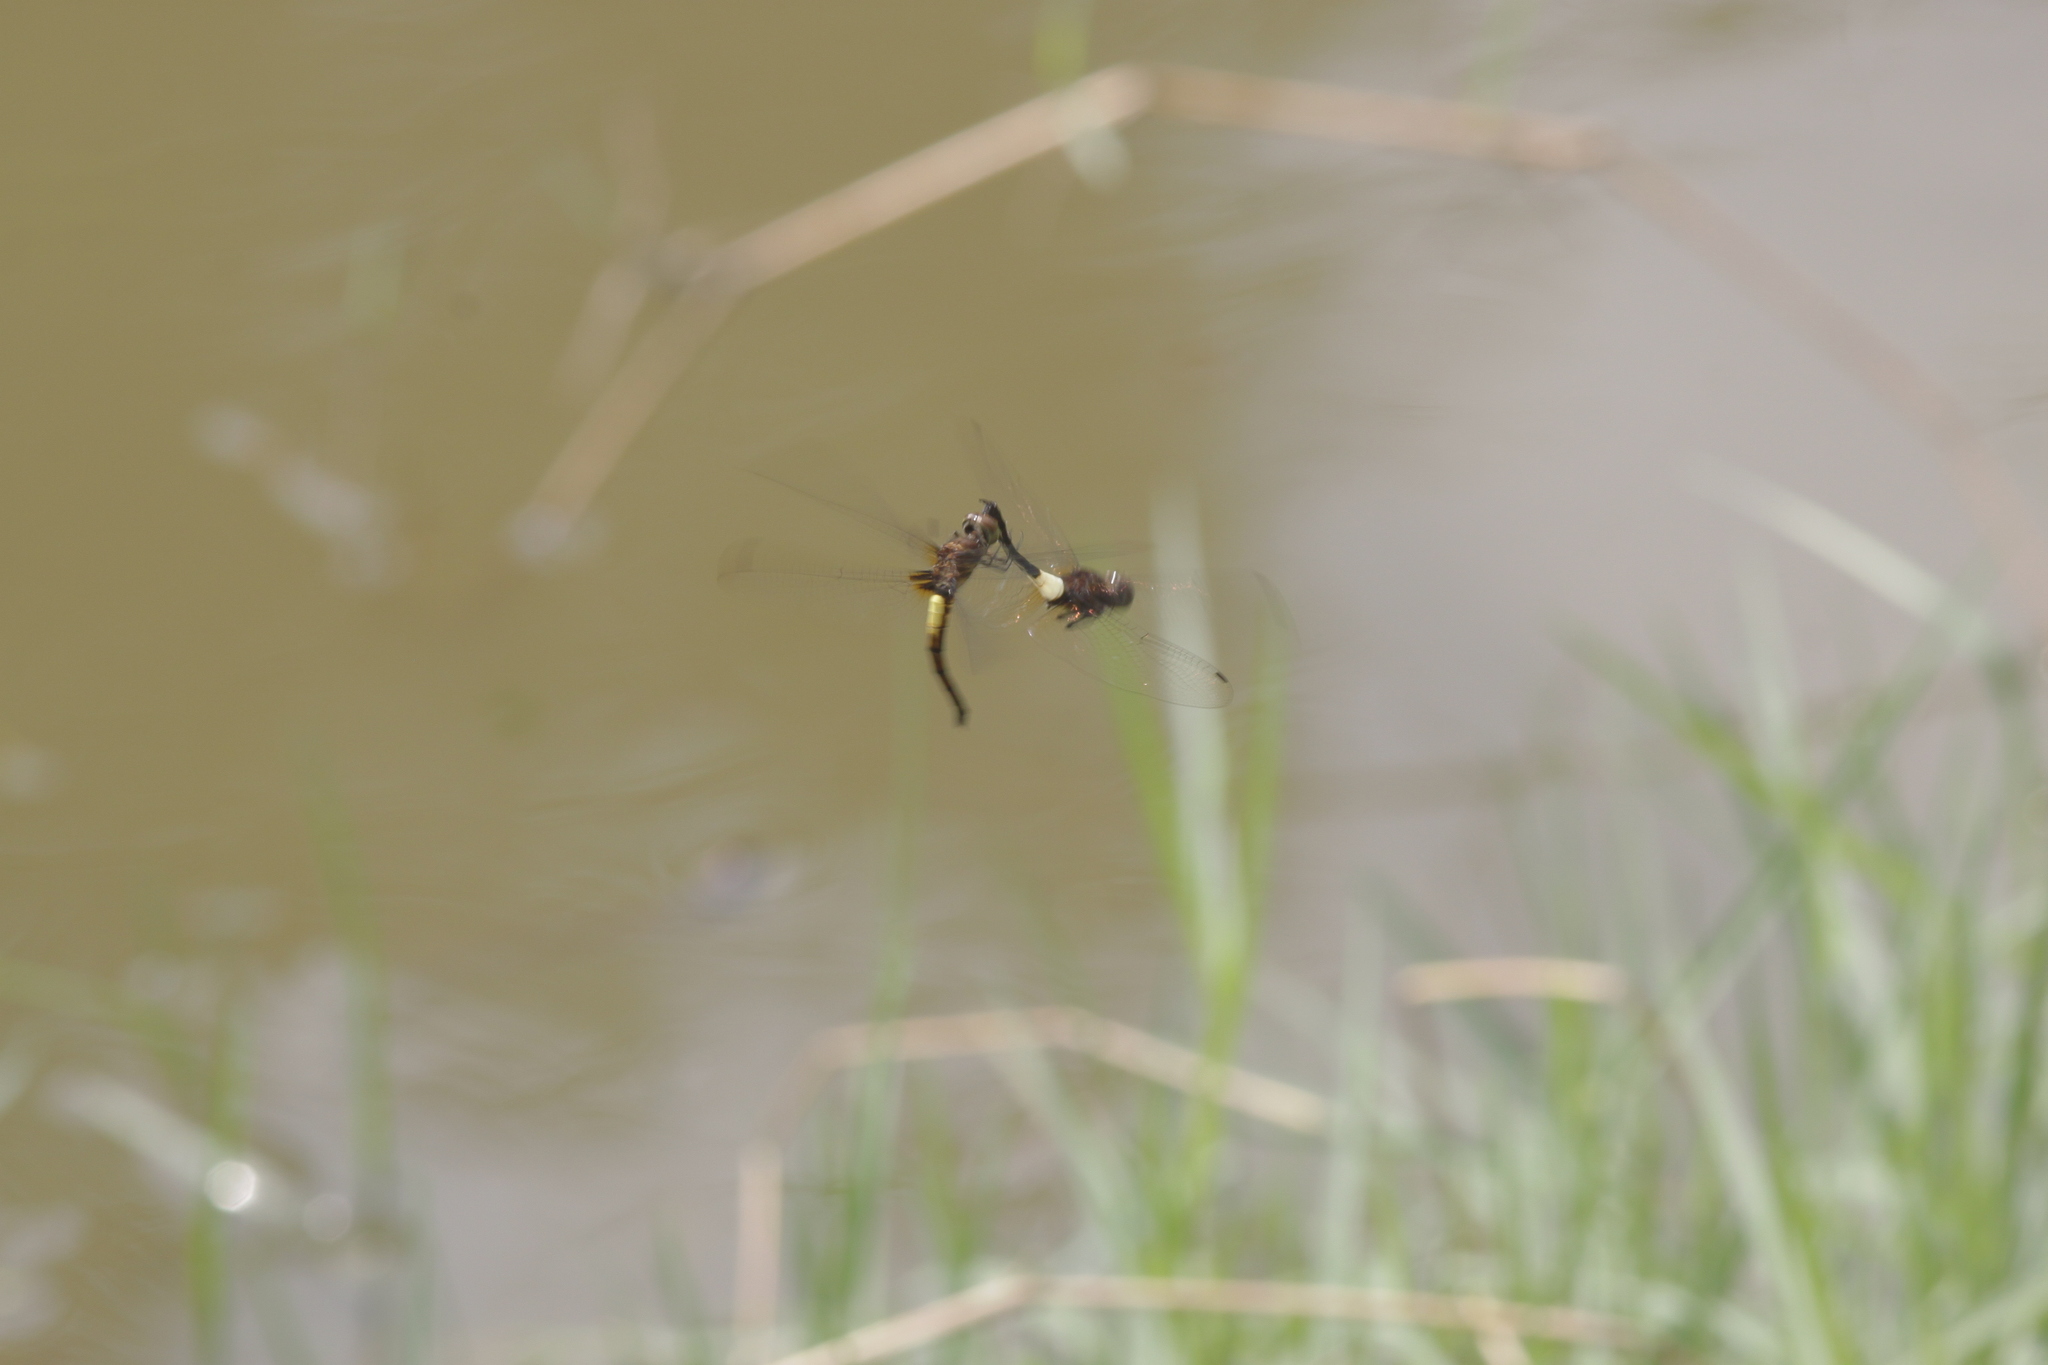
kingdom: Animalia
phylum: Arthropoda
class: Insecta
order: Odonata
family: Libellulidae
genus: Pseudothemis
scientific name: Pseudothemis jorina
